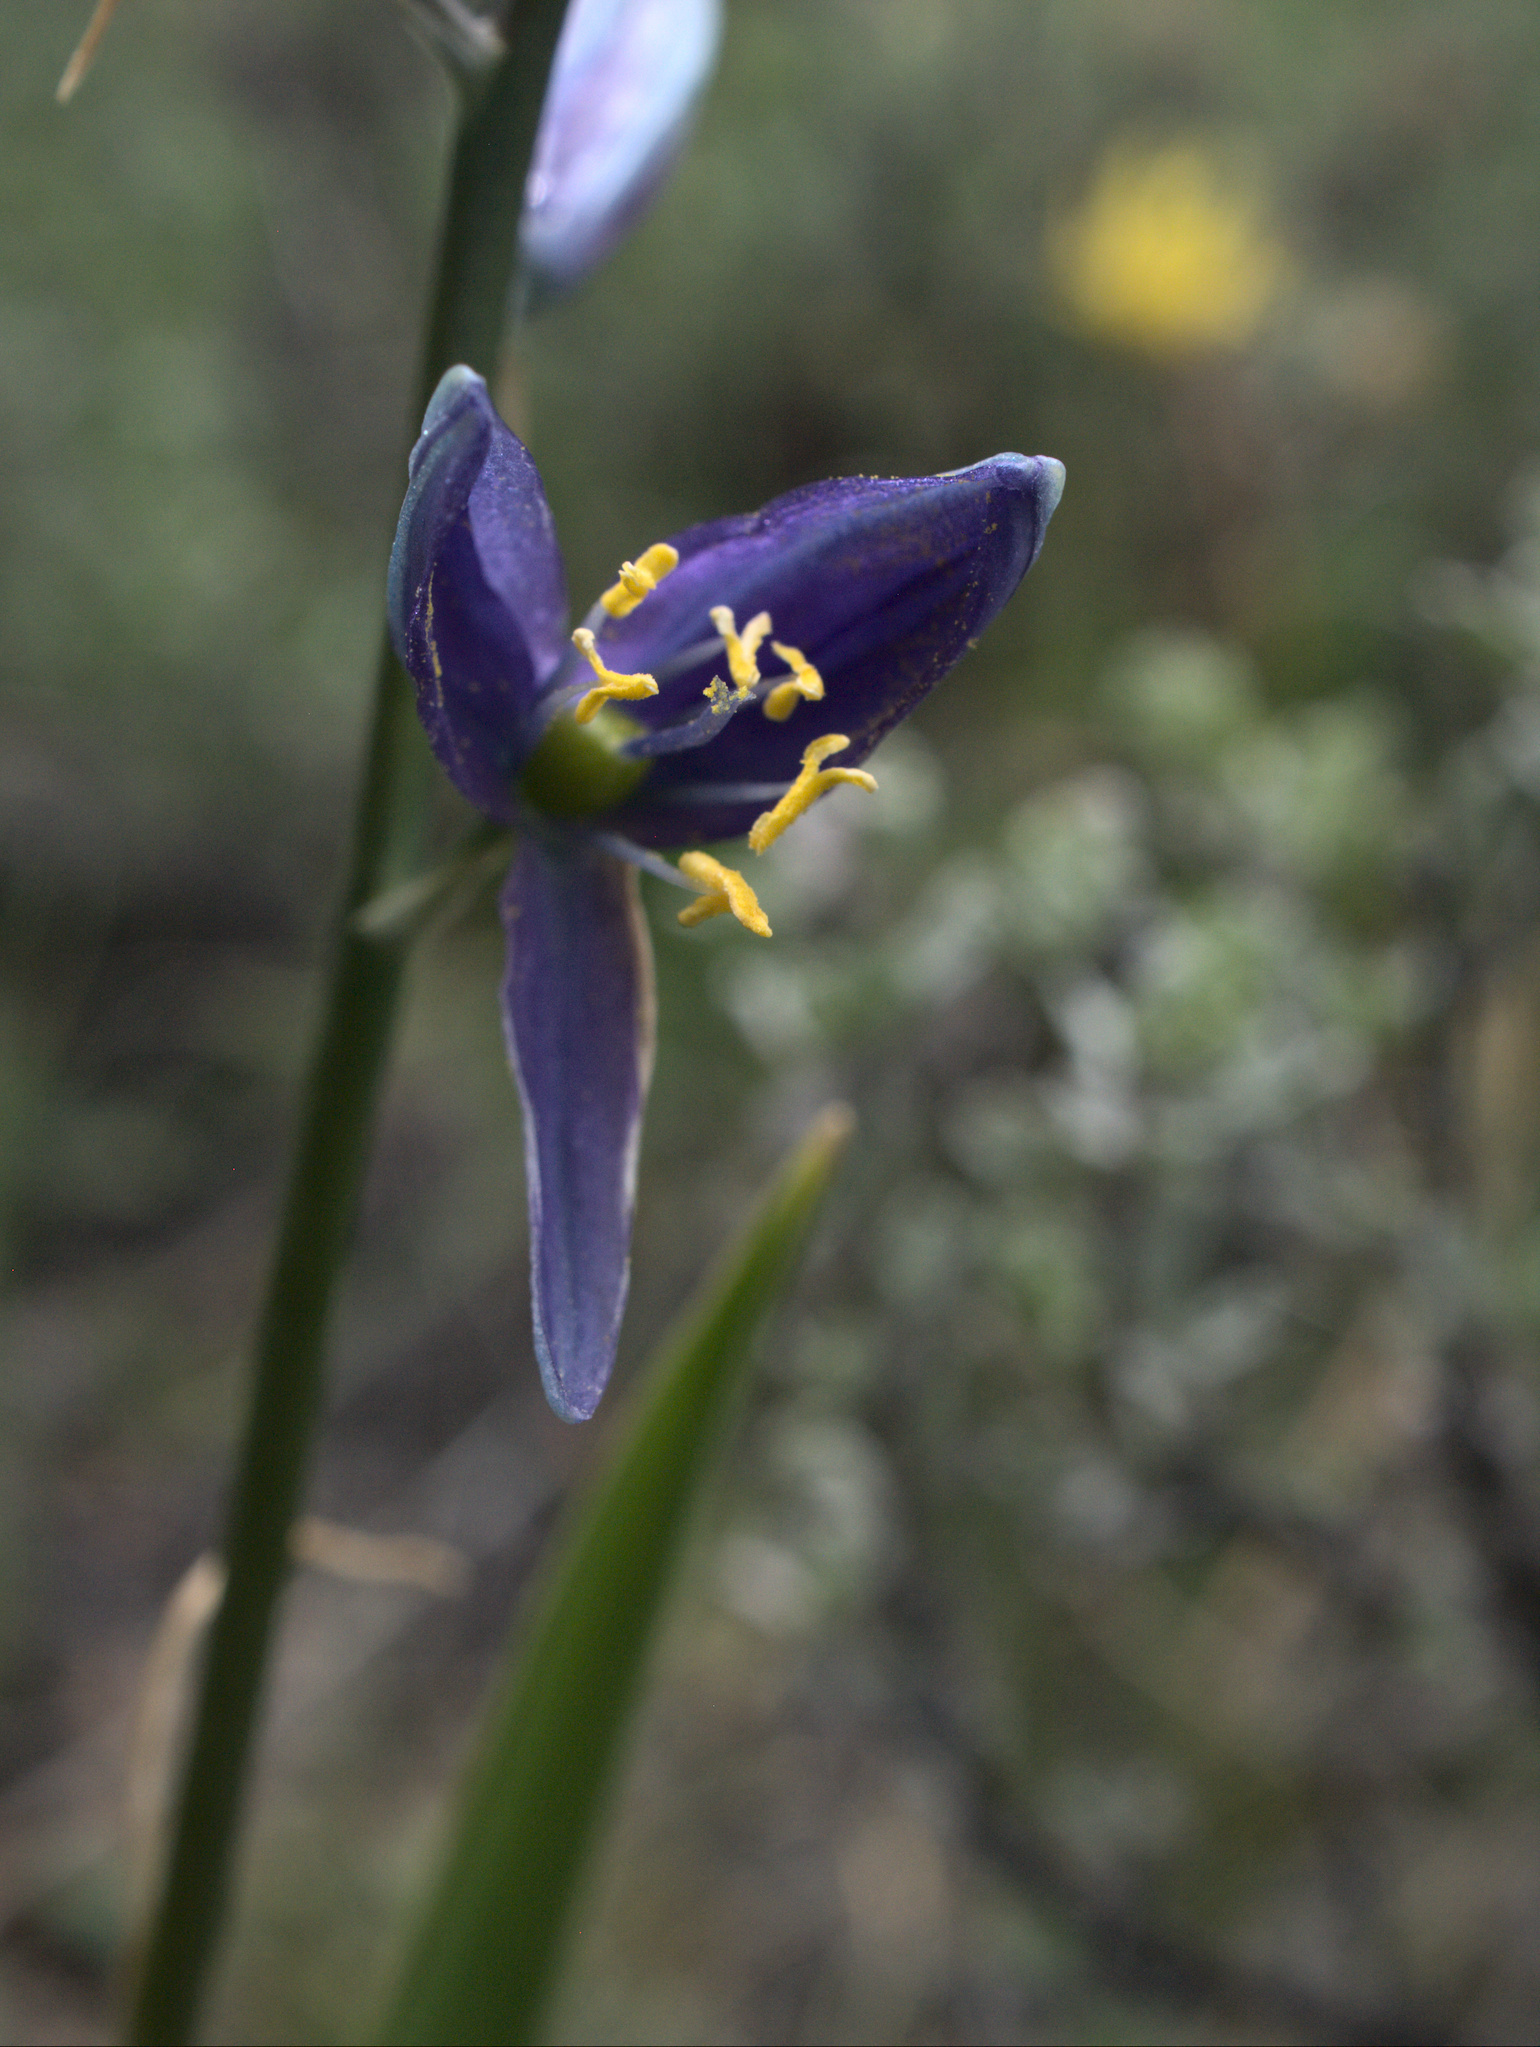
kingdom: Plantae
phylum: Tracheophyta
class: Liliopsida
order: Asparagales
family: Asparagaceae
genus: Camassia
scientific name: Camassia quamash
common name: Common camas
